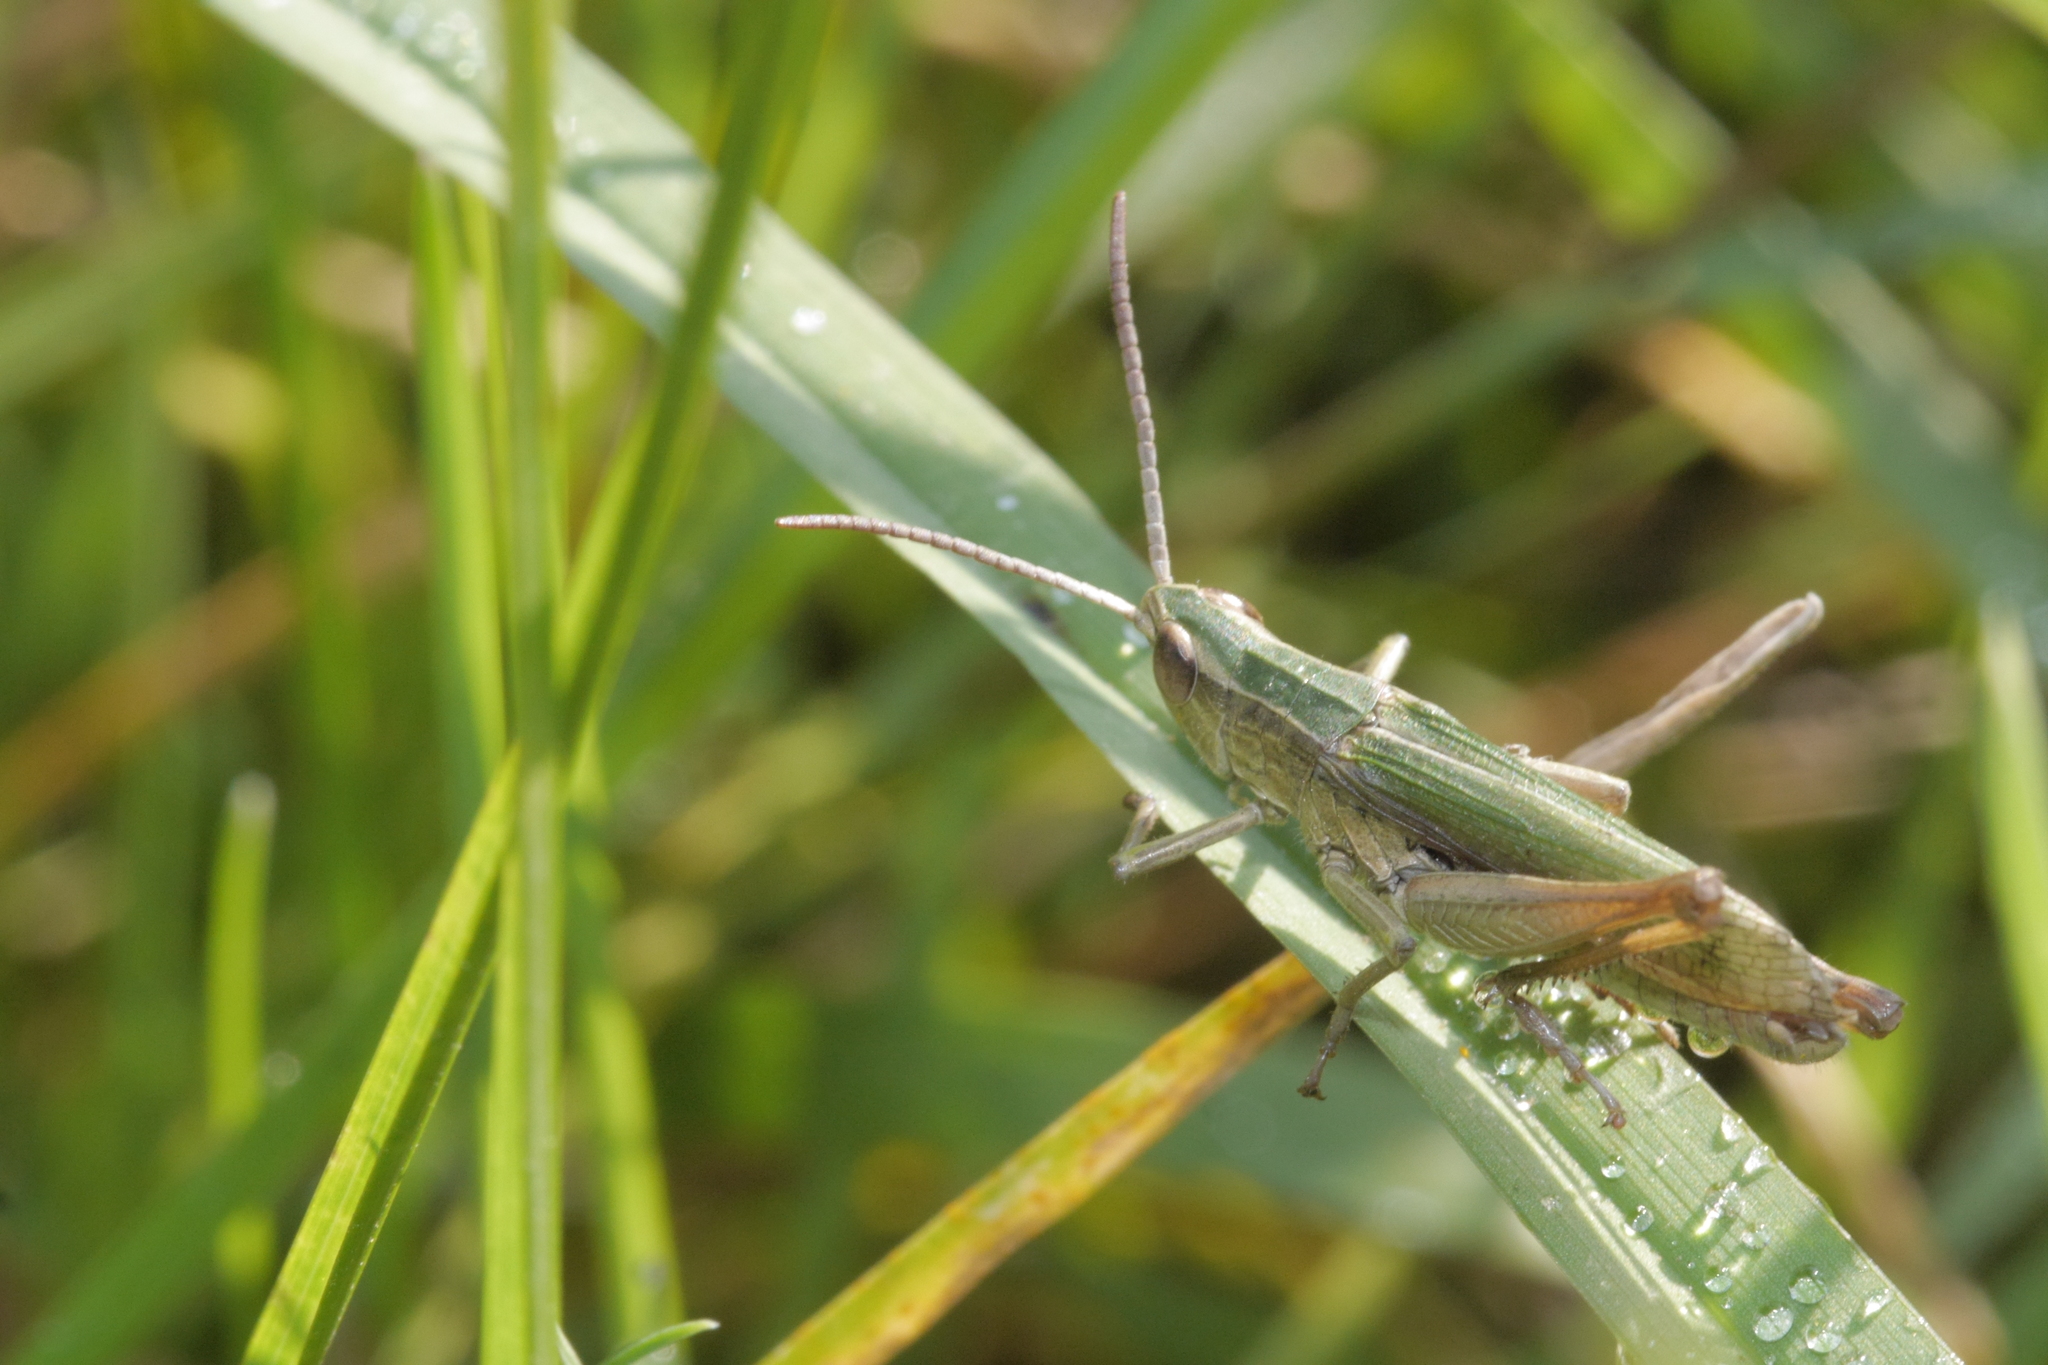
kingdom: Animalia
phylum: Arthropoda
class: Insecta
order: Orthoptera
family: Acrididae
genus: Chorthippus
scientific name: Chorthippus albomarginatus
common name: Lesser marsh grasshopper
